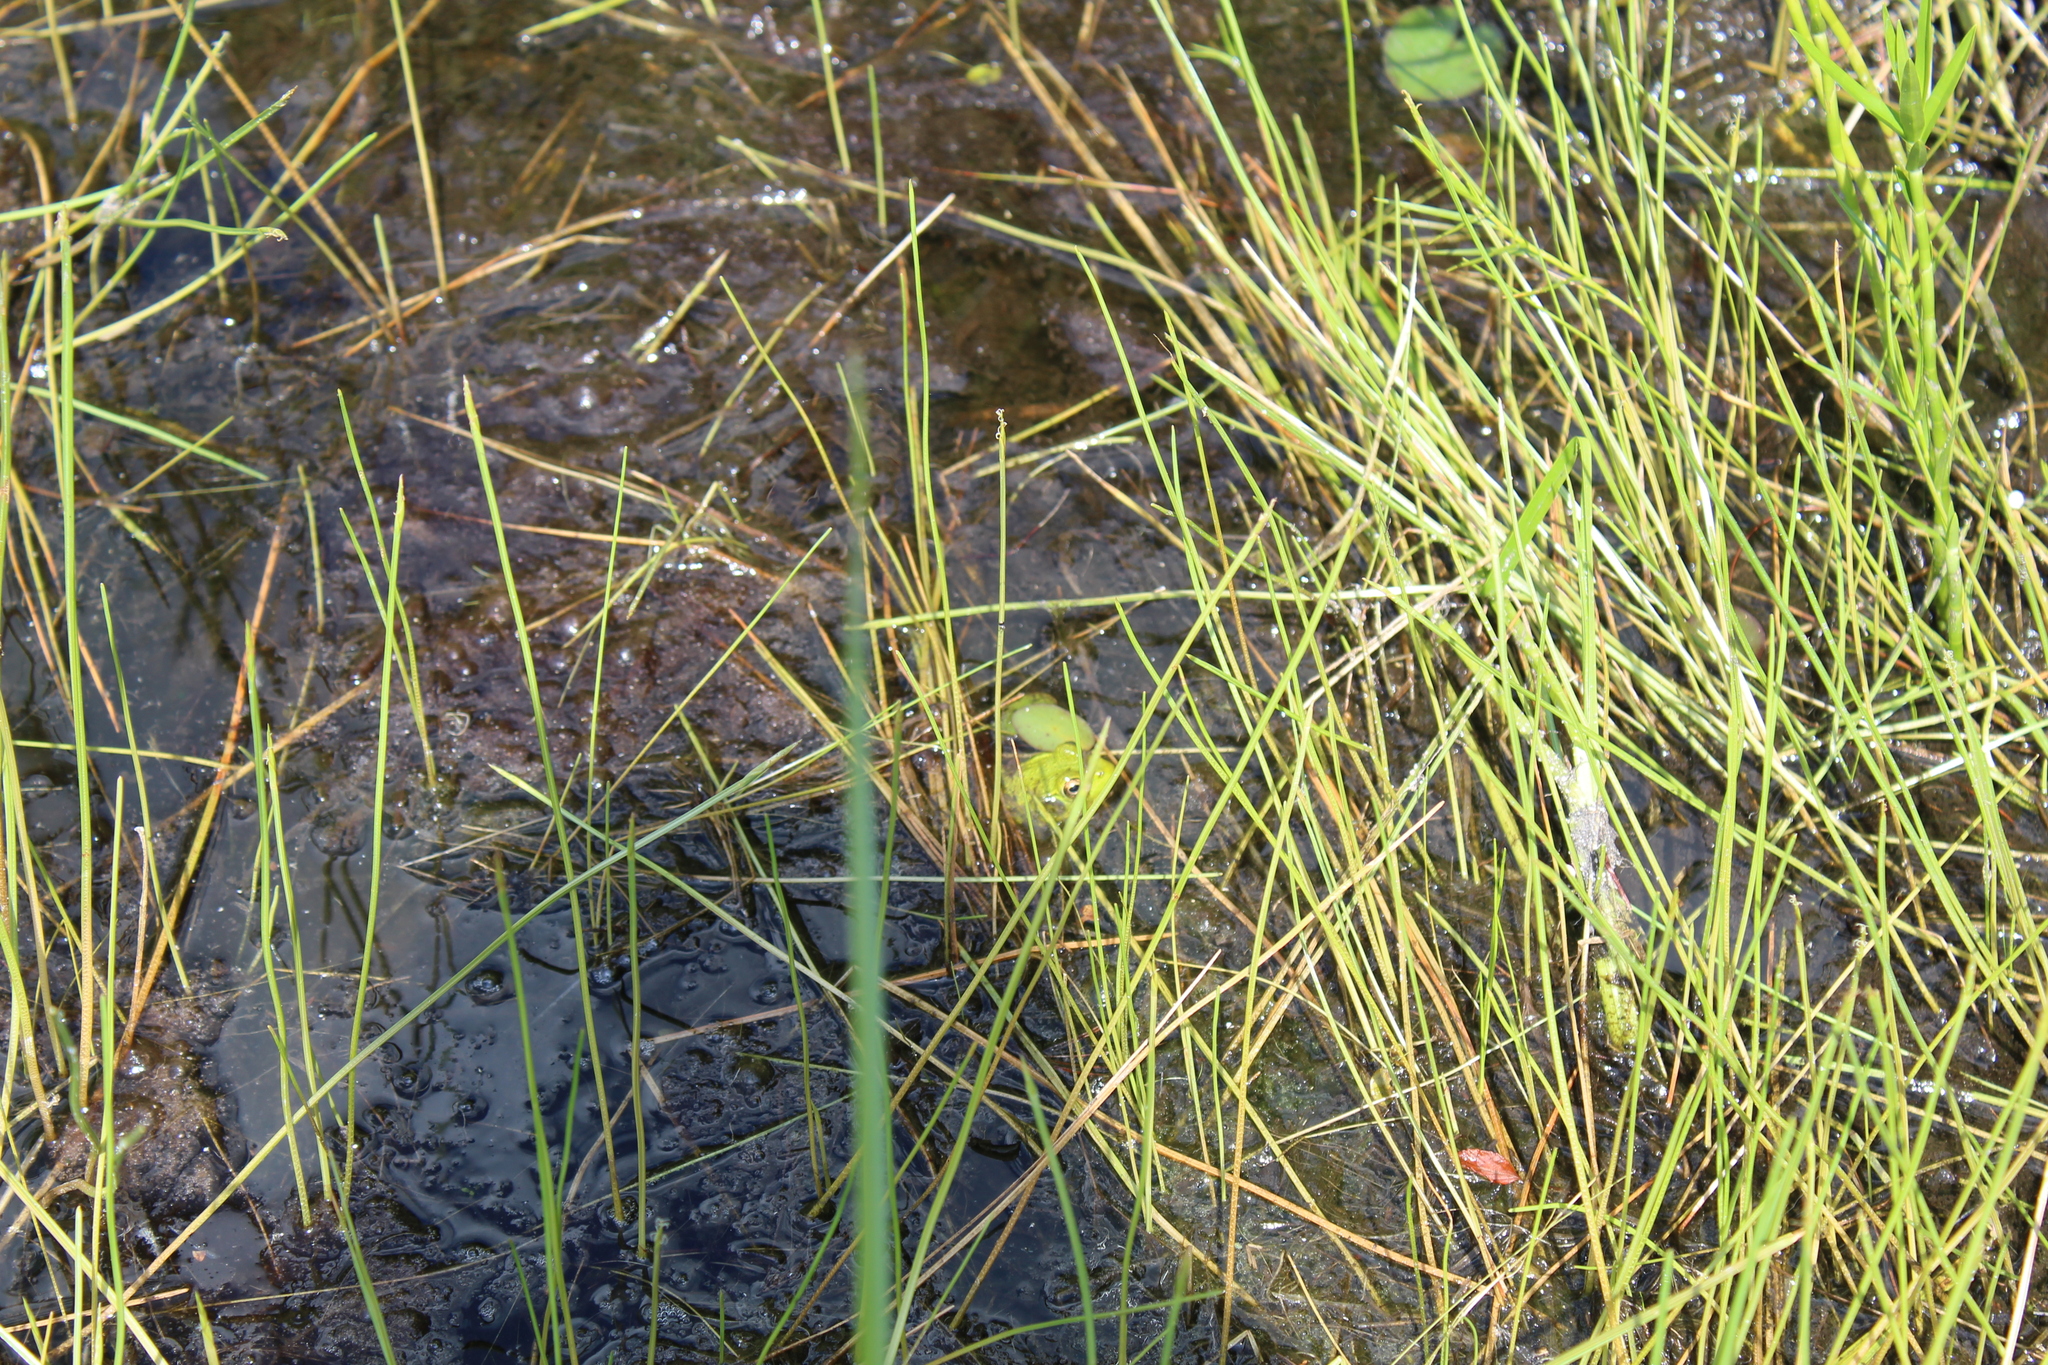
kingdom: Plantae
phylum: Tracheophyta
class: Liliopsida
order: Poales
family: Cyperaceae
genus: Eleocharis
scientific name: Eleocharis robbinsii
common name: Robbins' spikerush
